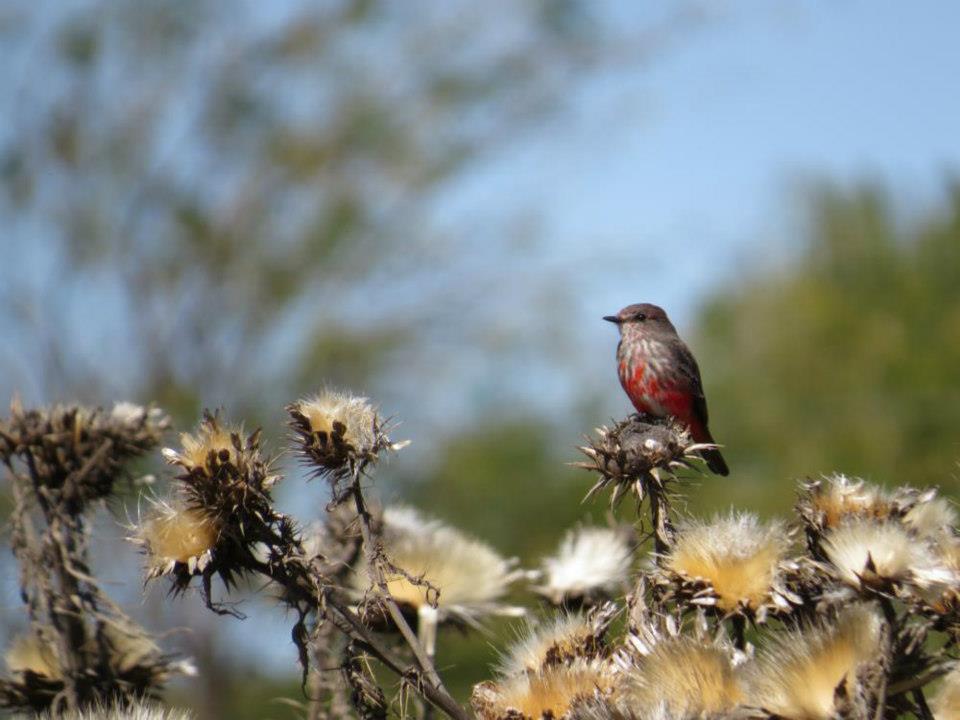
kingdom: Animalia
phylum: Chordata
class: Aves
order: Passeriformes
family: Tyrannidae
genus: Pyrocephalus
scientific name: Pyrocephalus rubinus
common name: Vermilion flycatcher
